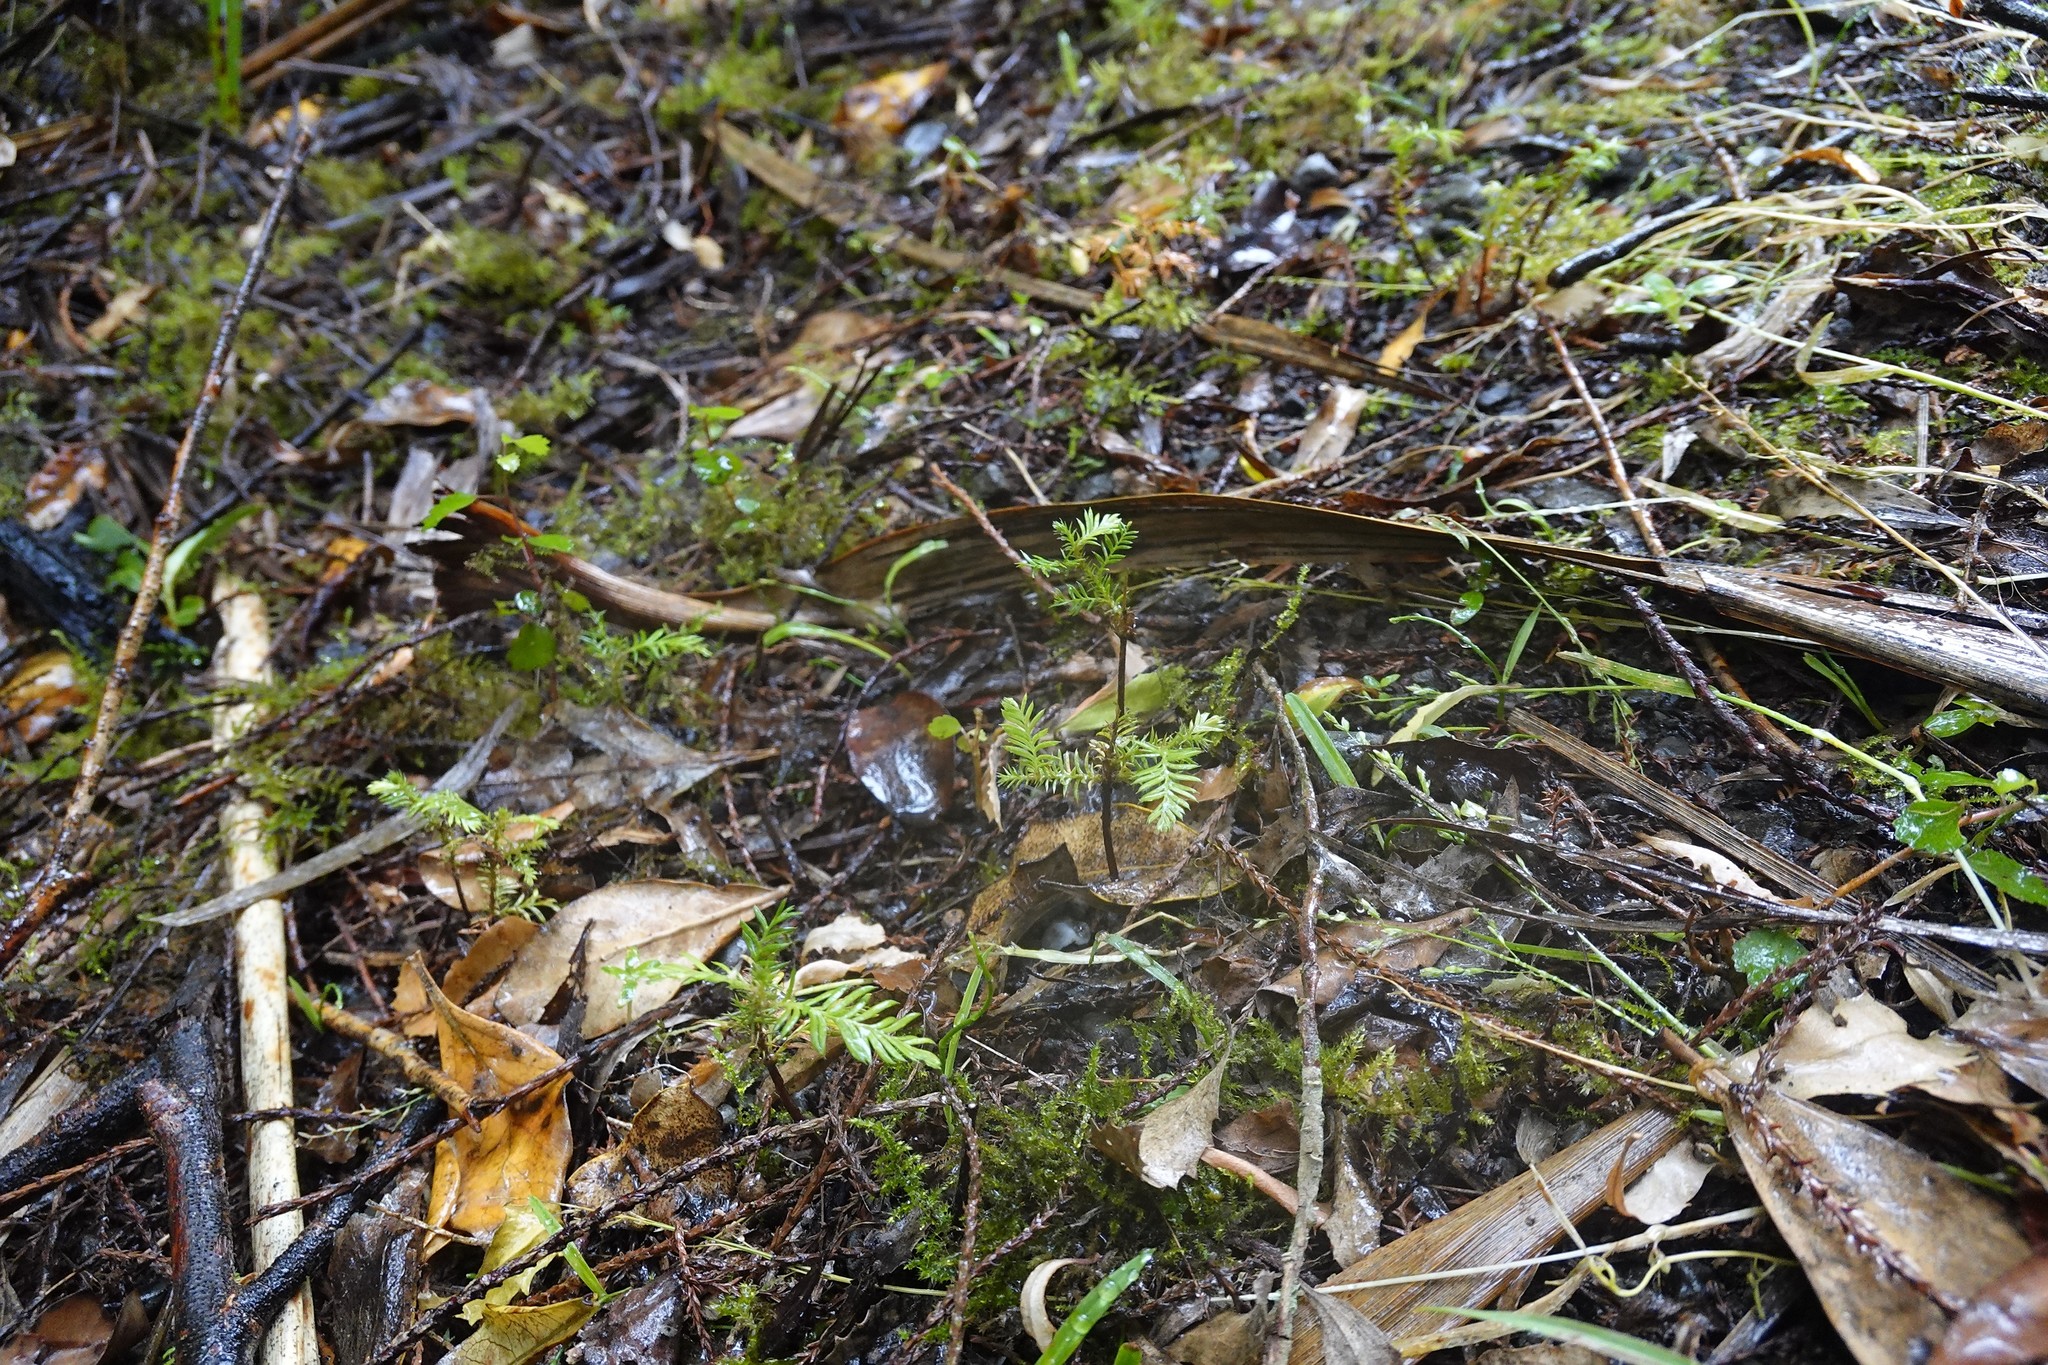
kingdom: Plantae
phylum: Tracheophyta
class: Pinopsida
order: Pinales
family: Podocarpaceae
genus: Dacrycarpus
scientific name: Dacrycarpus dacrydioides
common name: White pine
